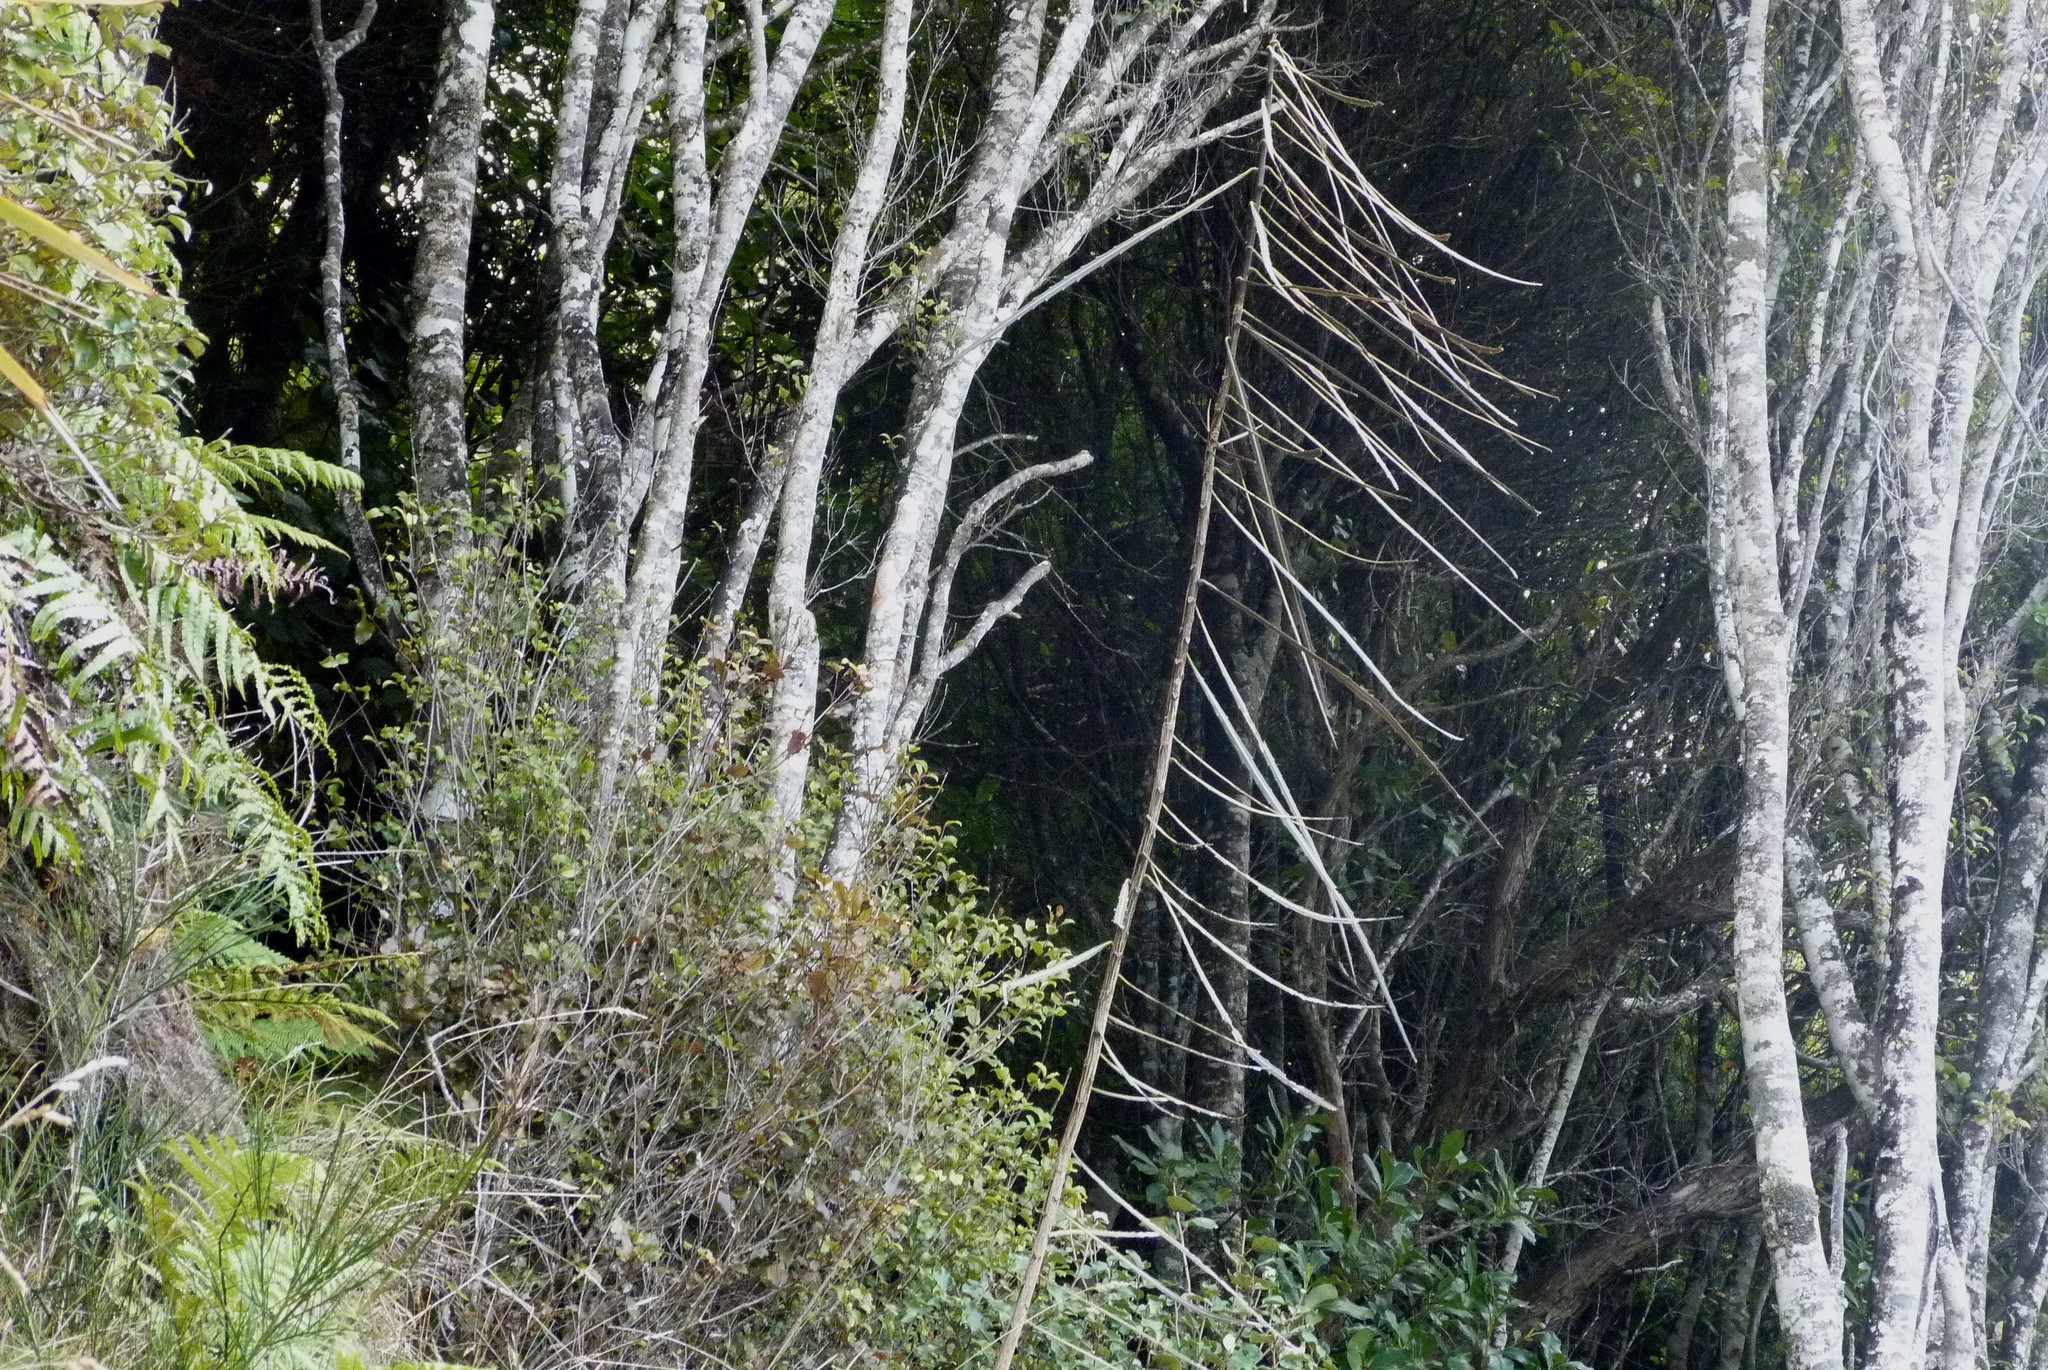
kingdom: Plantae
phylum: Tracheophyta
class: Magnoliopsida
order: Apiales
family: Araliaceae
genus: Pseudopanax
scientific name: Pseudopanax crassifolius
